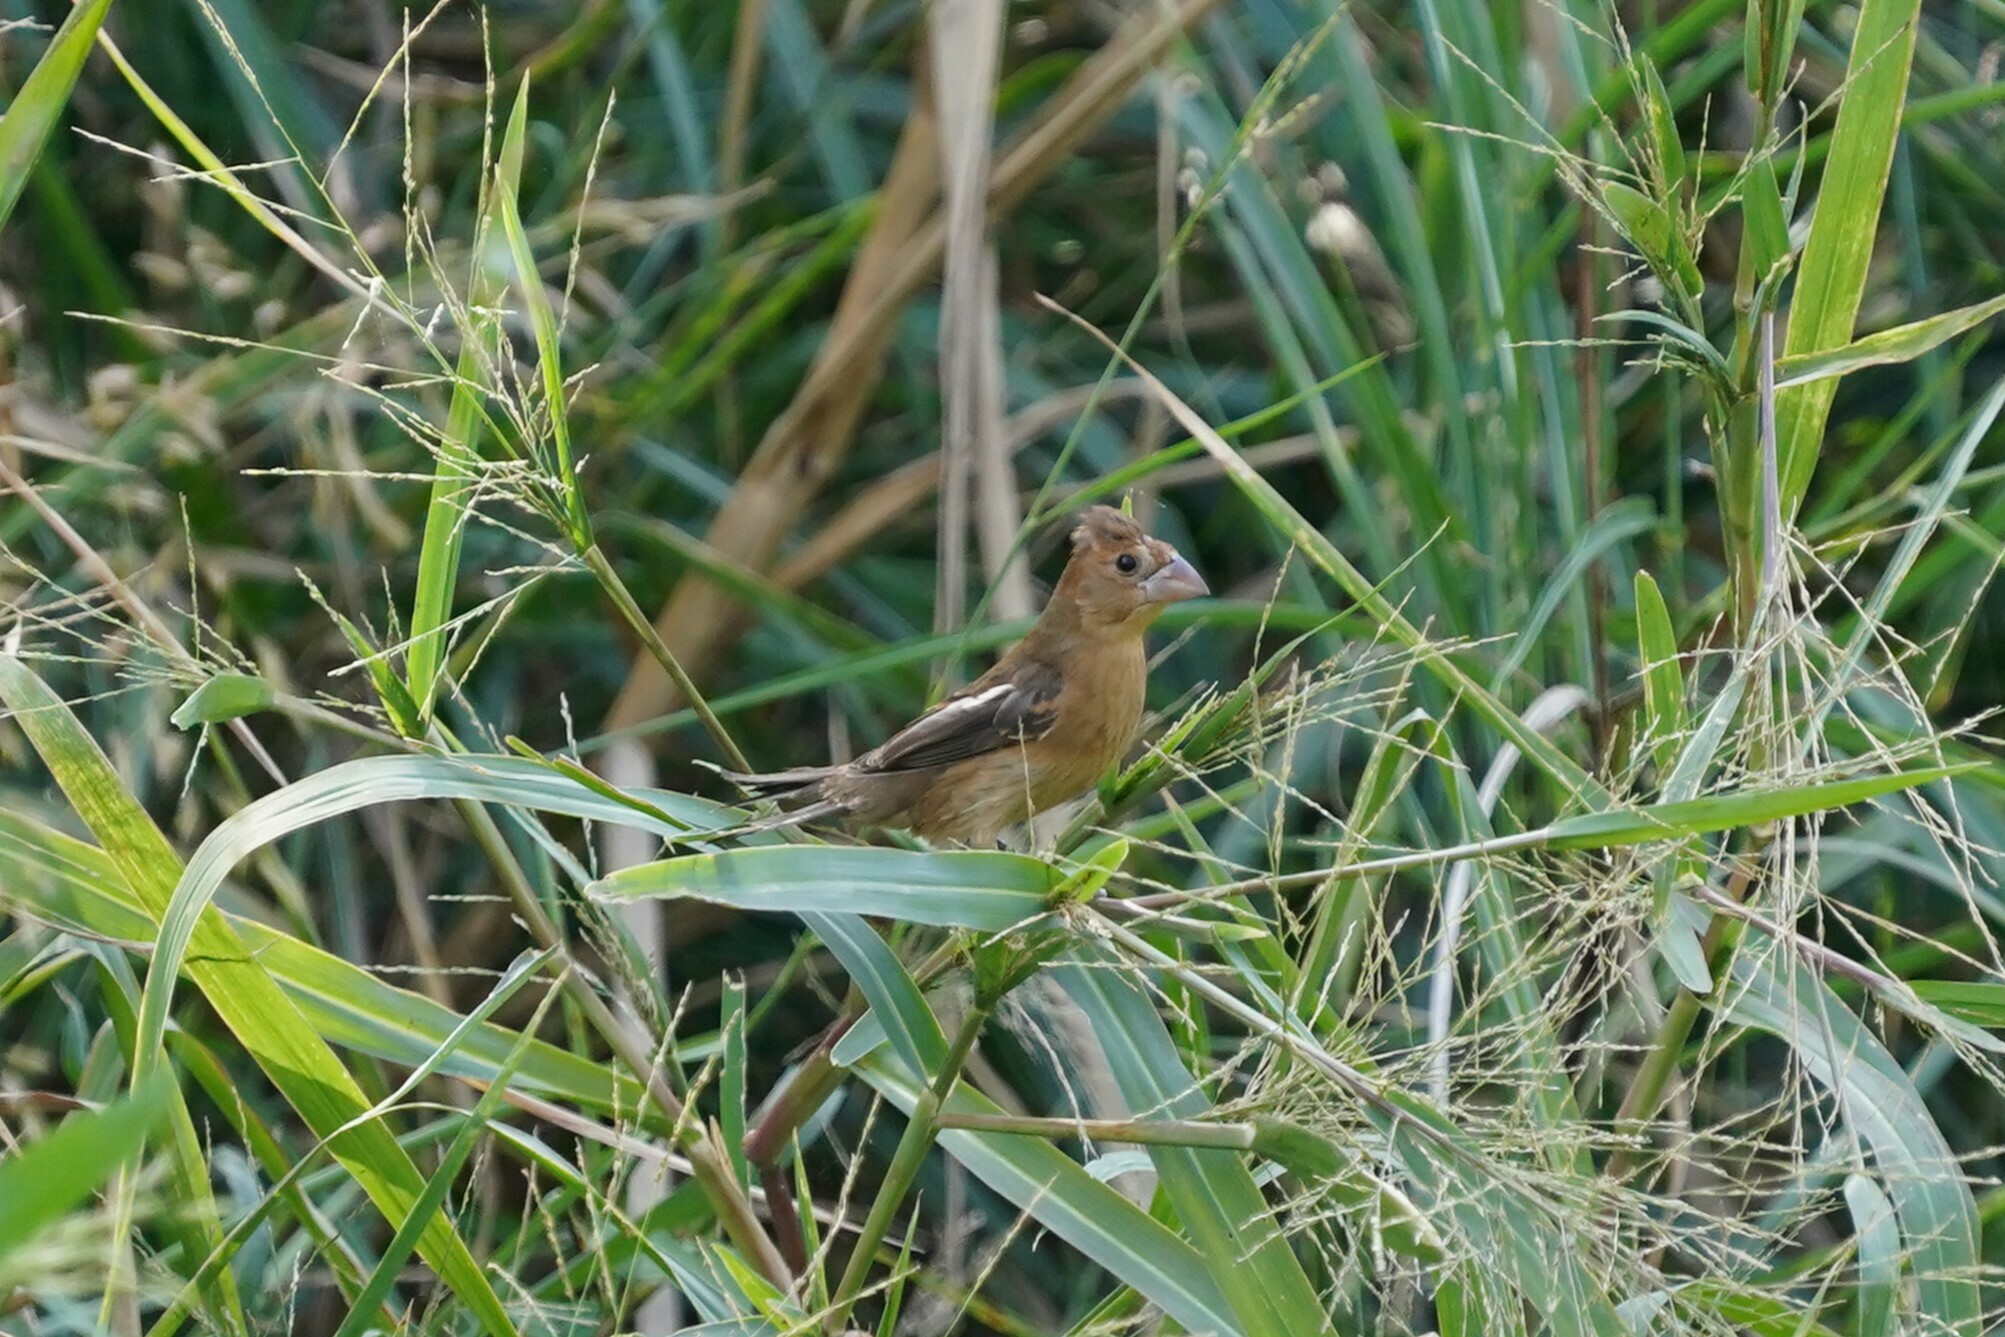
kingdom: Animalia
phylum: Chordata
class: Aves
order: Passeriformes
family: Cardinalidae
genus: Passerina
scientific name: Passerina caerulea
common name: Blue grosbeak
